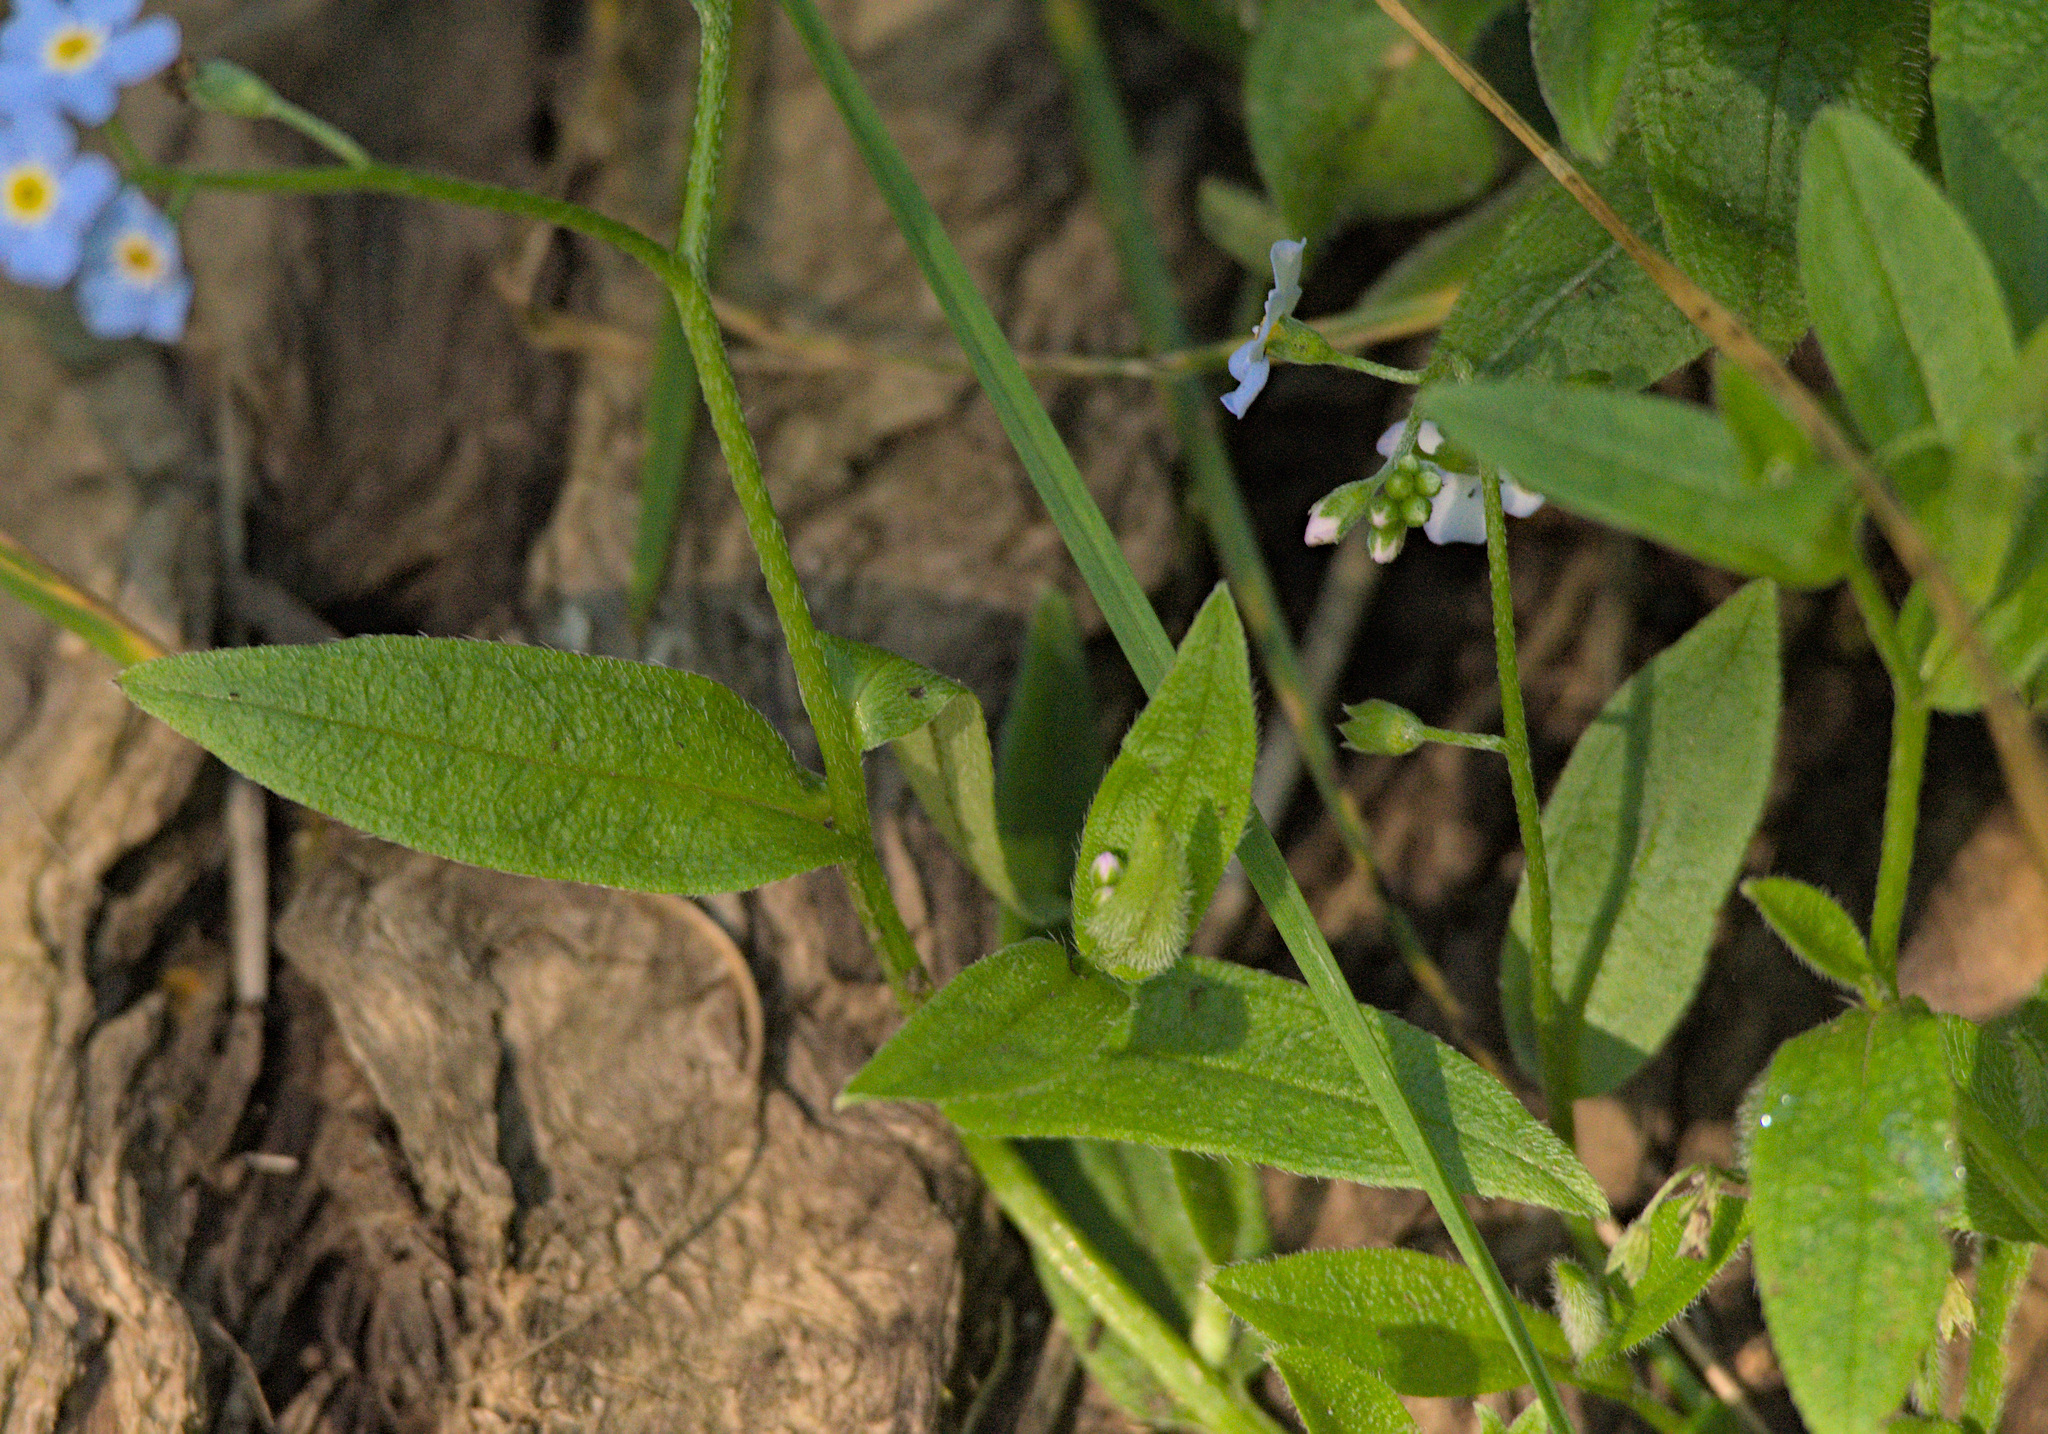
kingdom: Plantae
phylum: Tracheophyta
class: Magnoliopsida
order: Boraginales
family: Boraginaceae
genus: Myosotis
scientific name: Myosotis scorpioides
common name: Water forget-me-not
